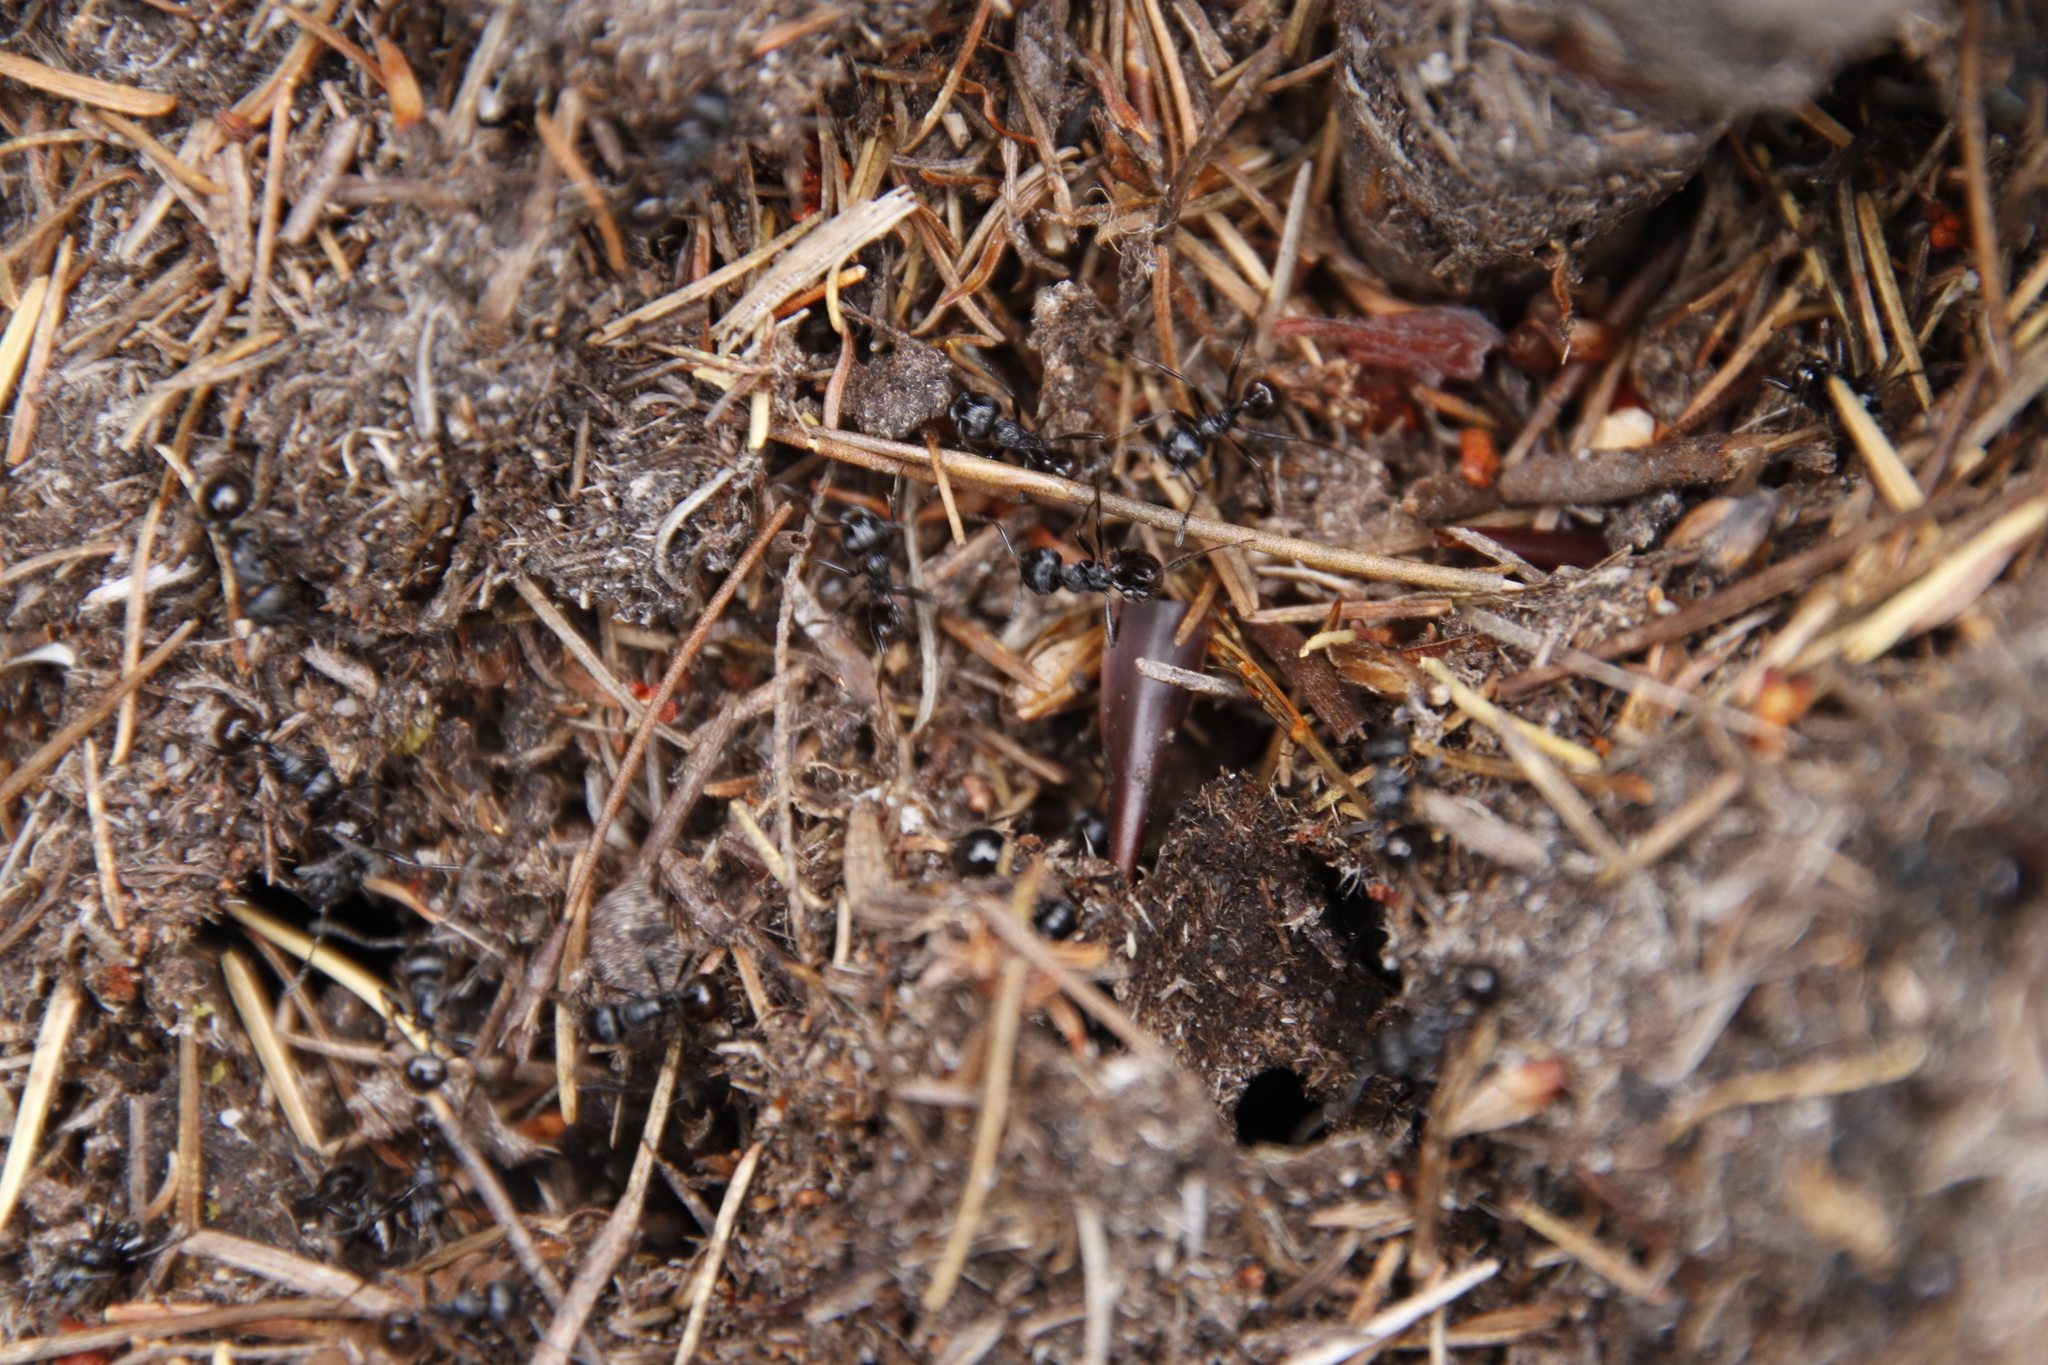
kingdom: Animalia
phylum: Arthropoda
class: Insecta
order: Hymenoptera
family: Formicidae
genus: Myrmicaria
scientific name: Myrmicaria nigra
